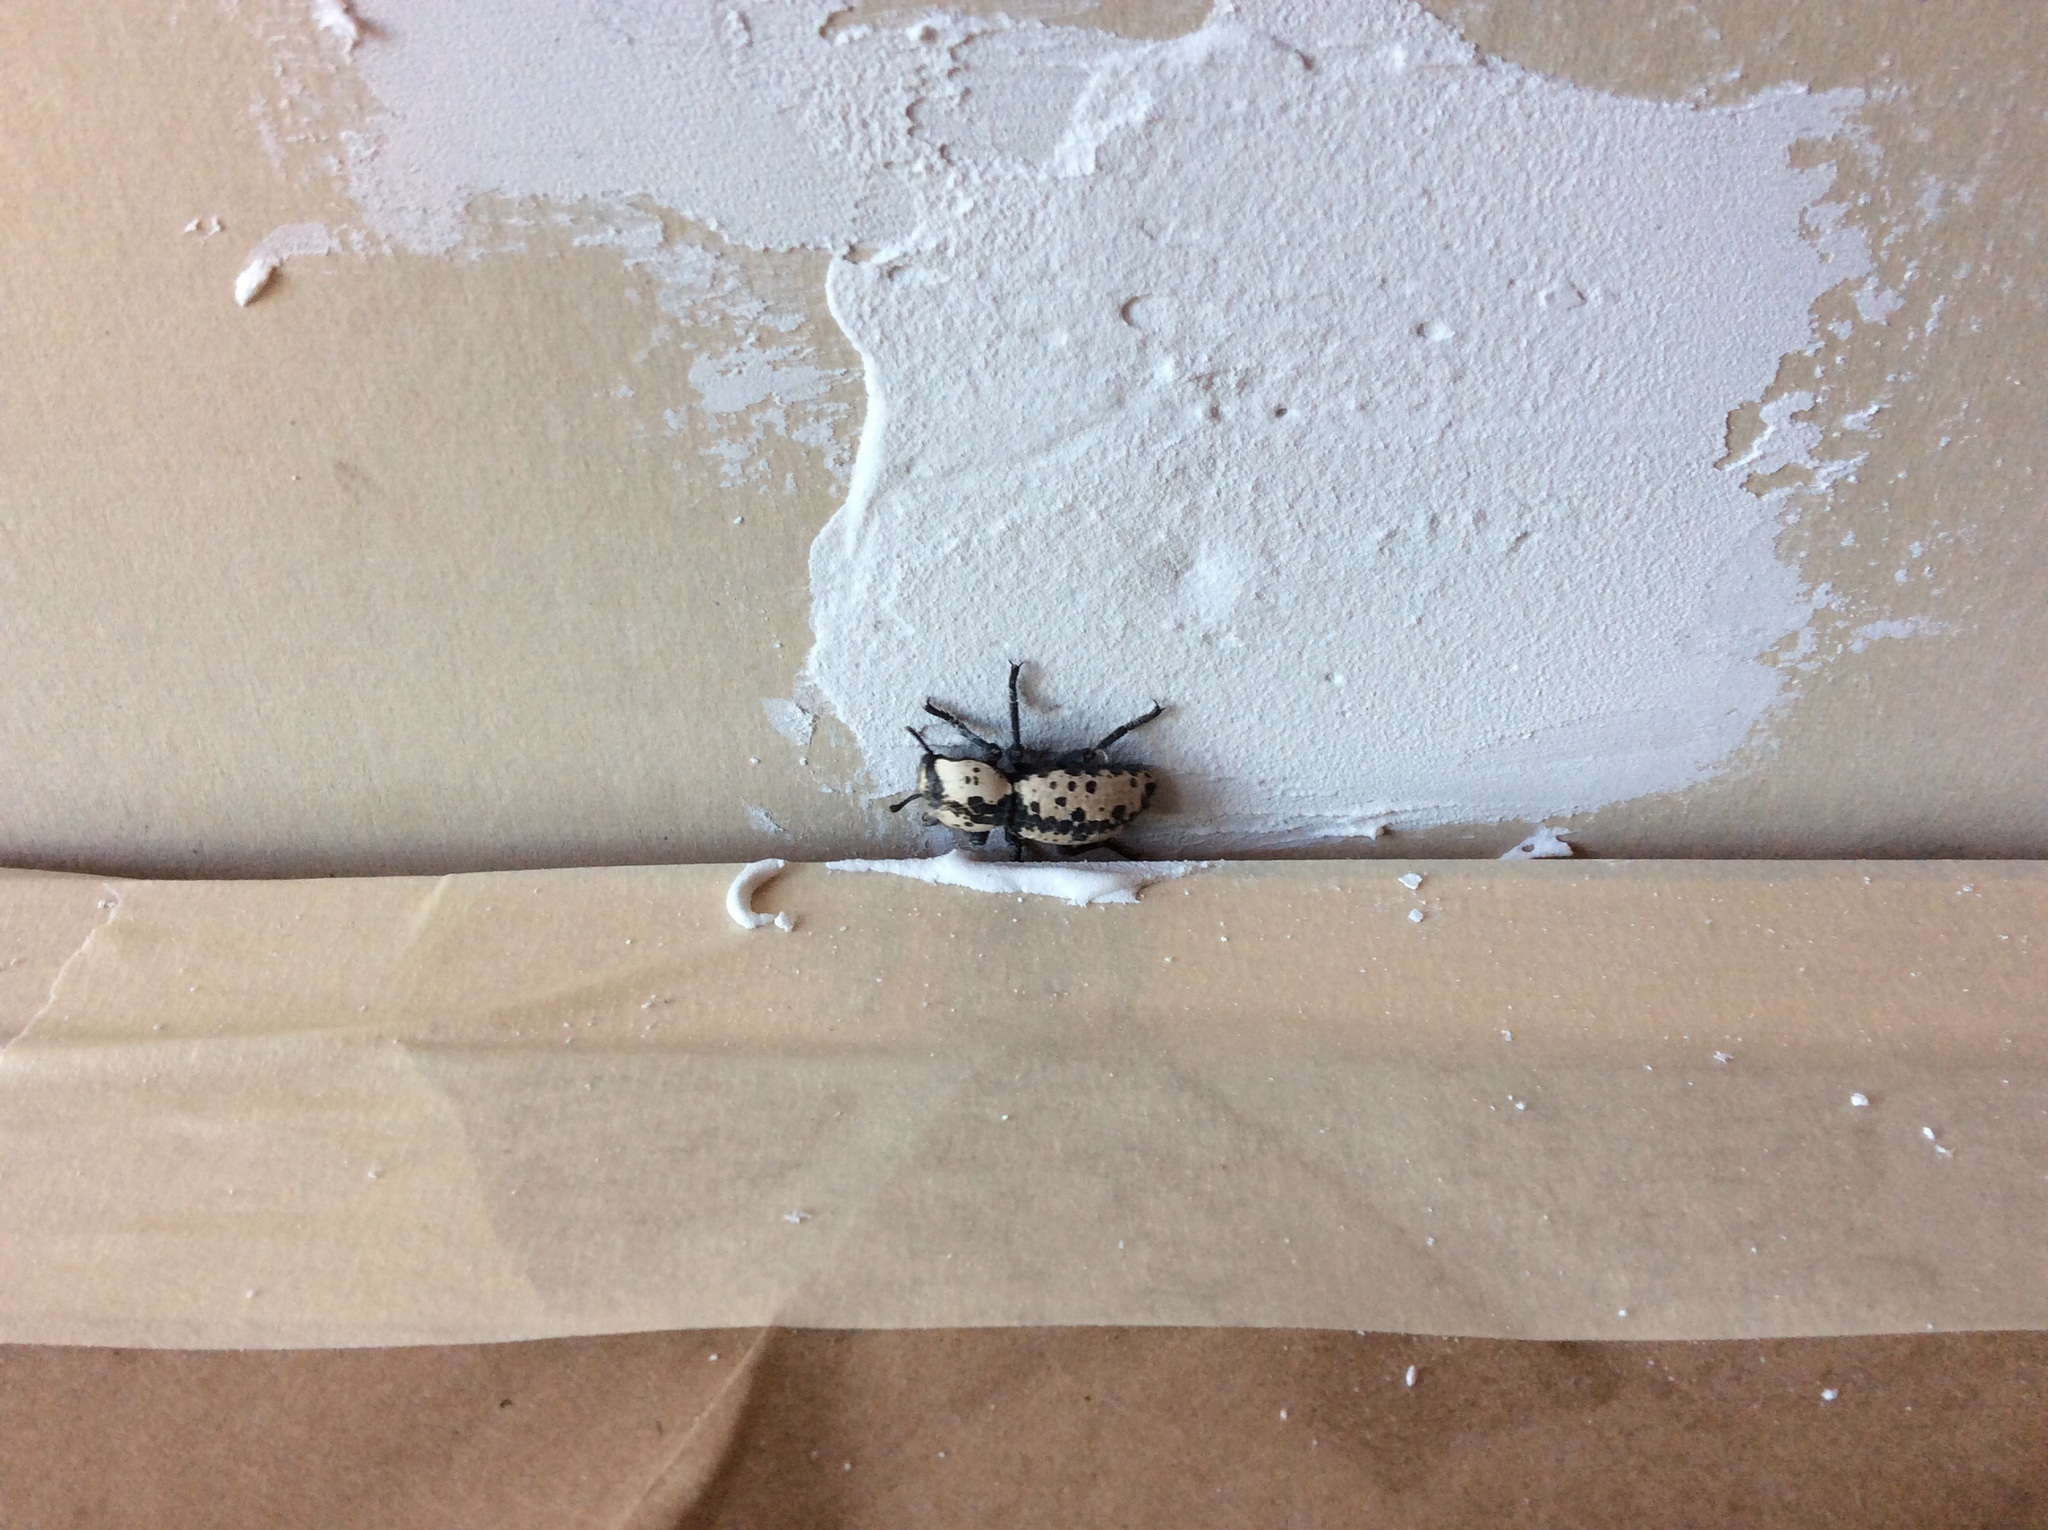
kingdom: Animalia
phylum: Arthropoda
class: Insecta
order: Coleoptera
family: Zopheridae
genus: Zopherus
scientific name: Zopherus nodulosus
